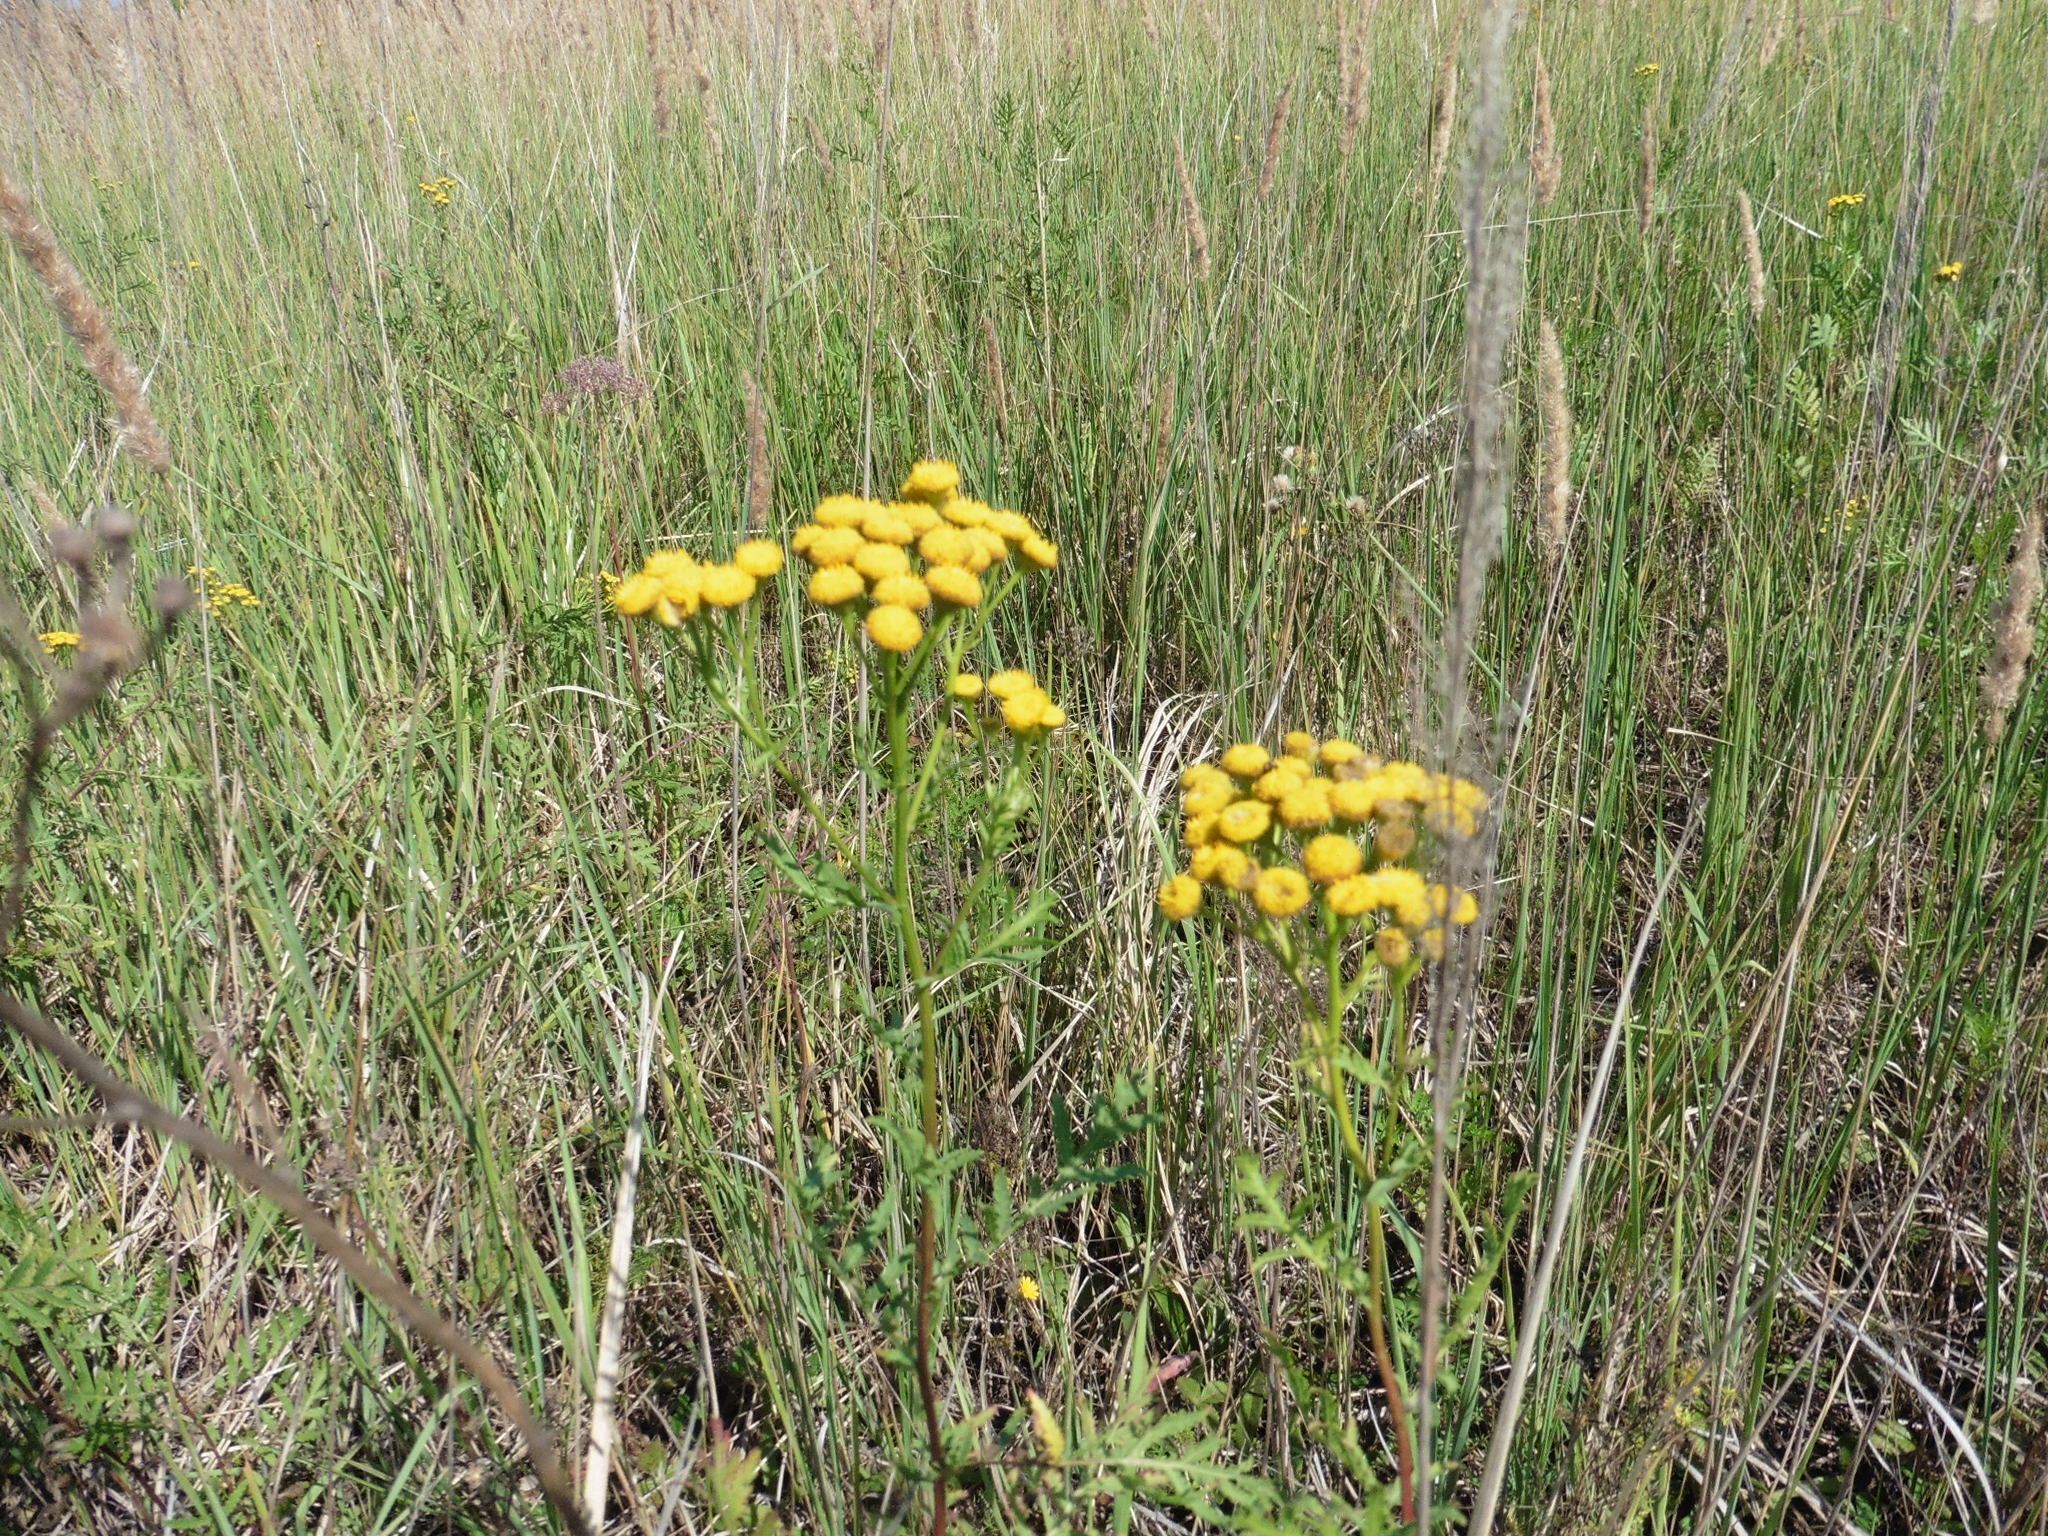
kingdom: Plantae
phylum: Tracheophyta
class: Magnoliopsida
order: Asterales
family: Asteraceae
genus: Tanacetum
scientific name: Tanacetum vulgare
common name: Common tansy
